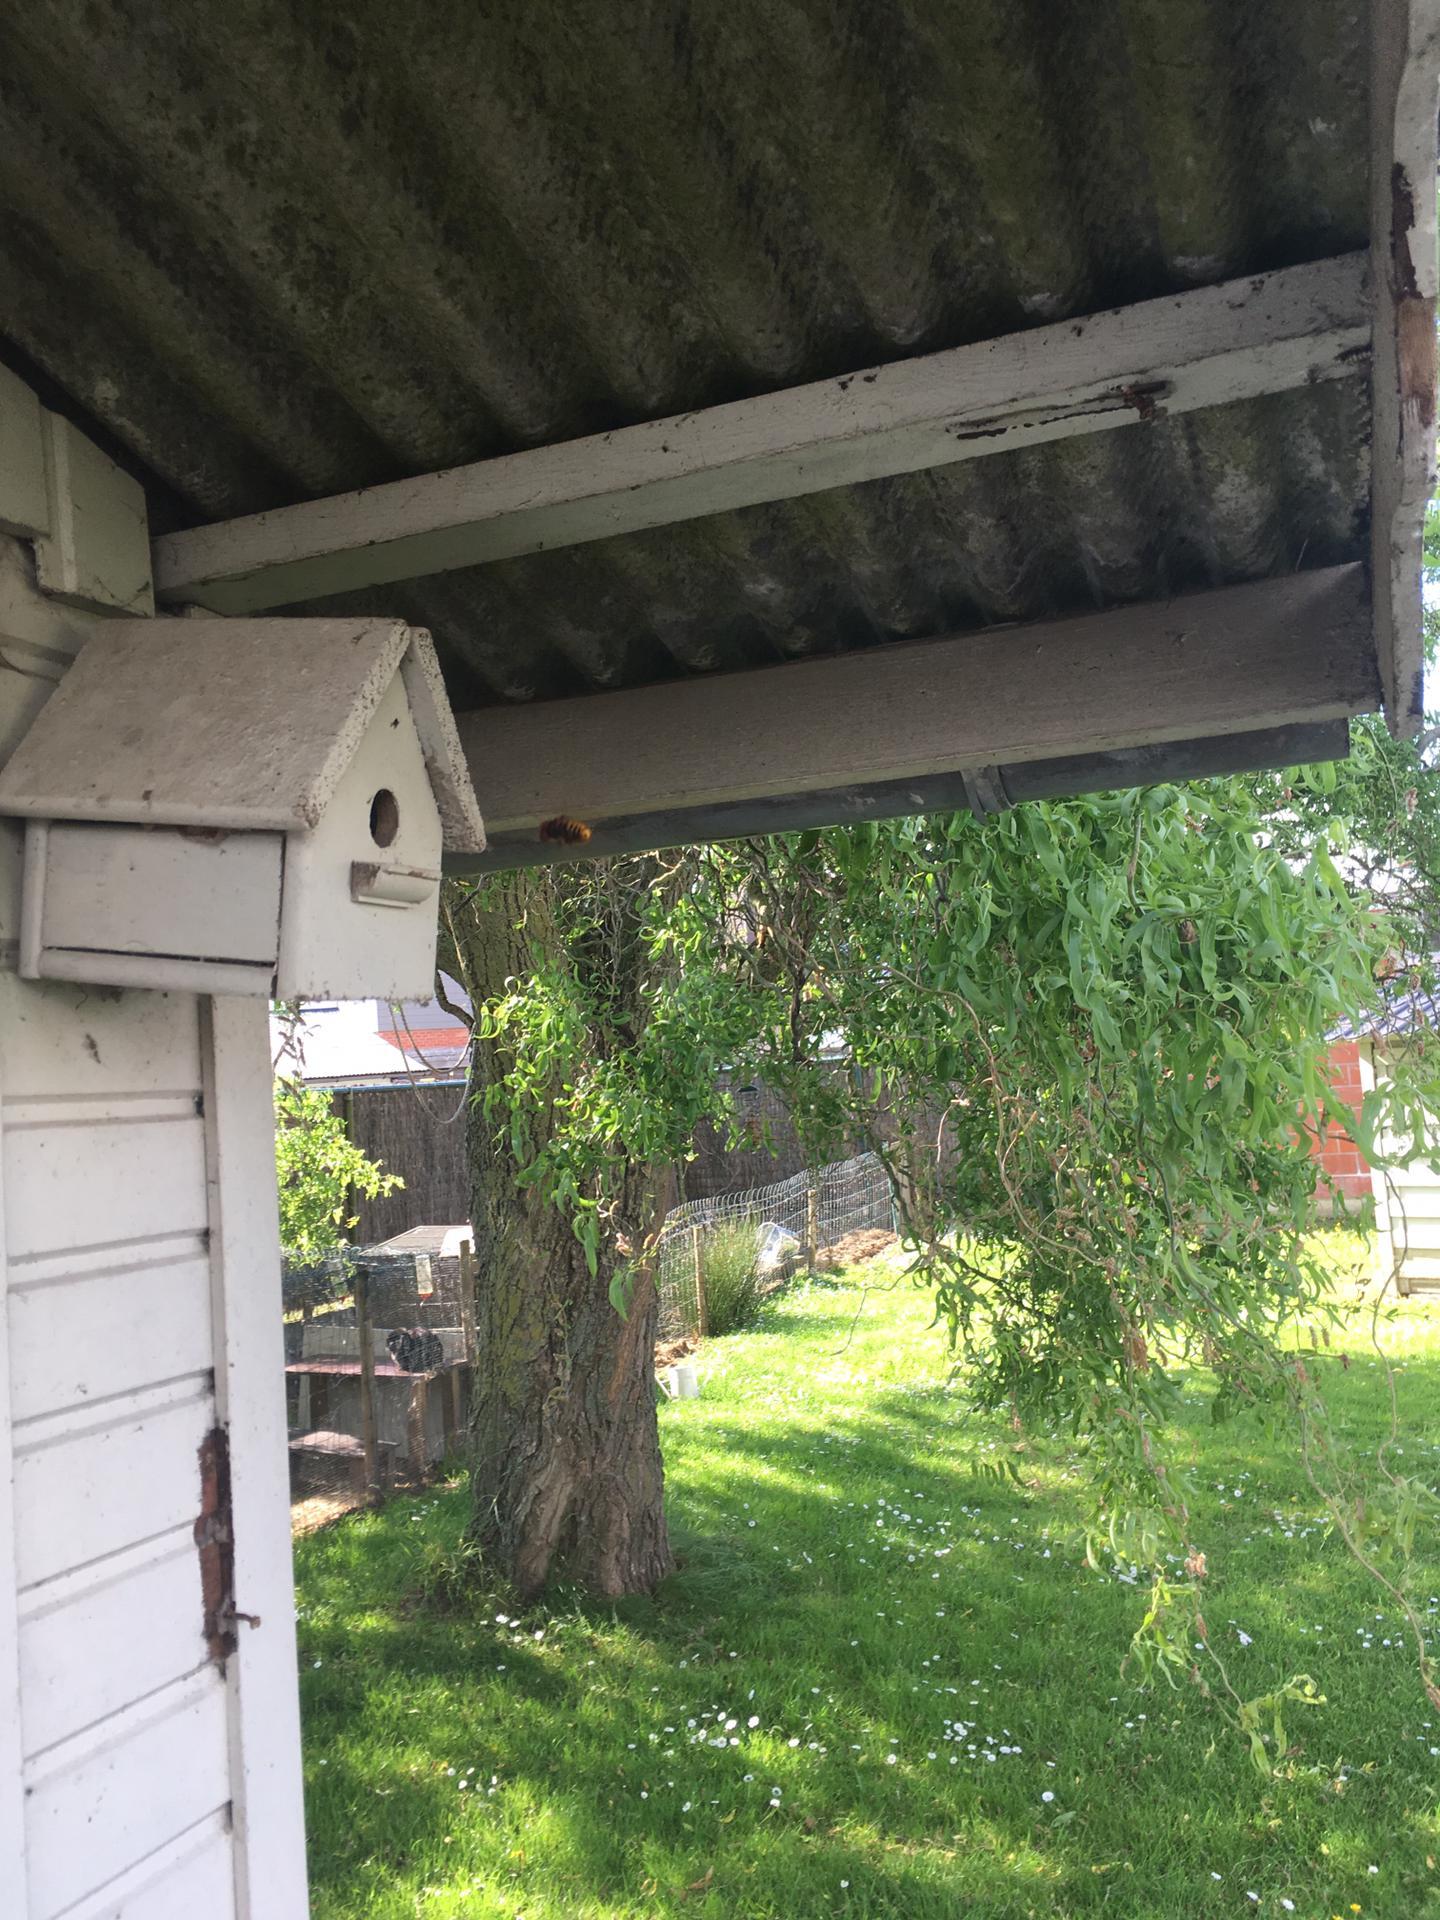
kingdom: Animalia
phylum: Arthropoda
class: Insecta
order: Hymenoptera
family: Vespidae
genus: Vespa
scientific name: Vespa crabro
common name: Hornet
